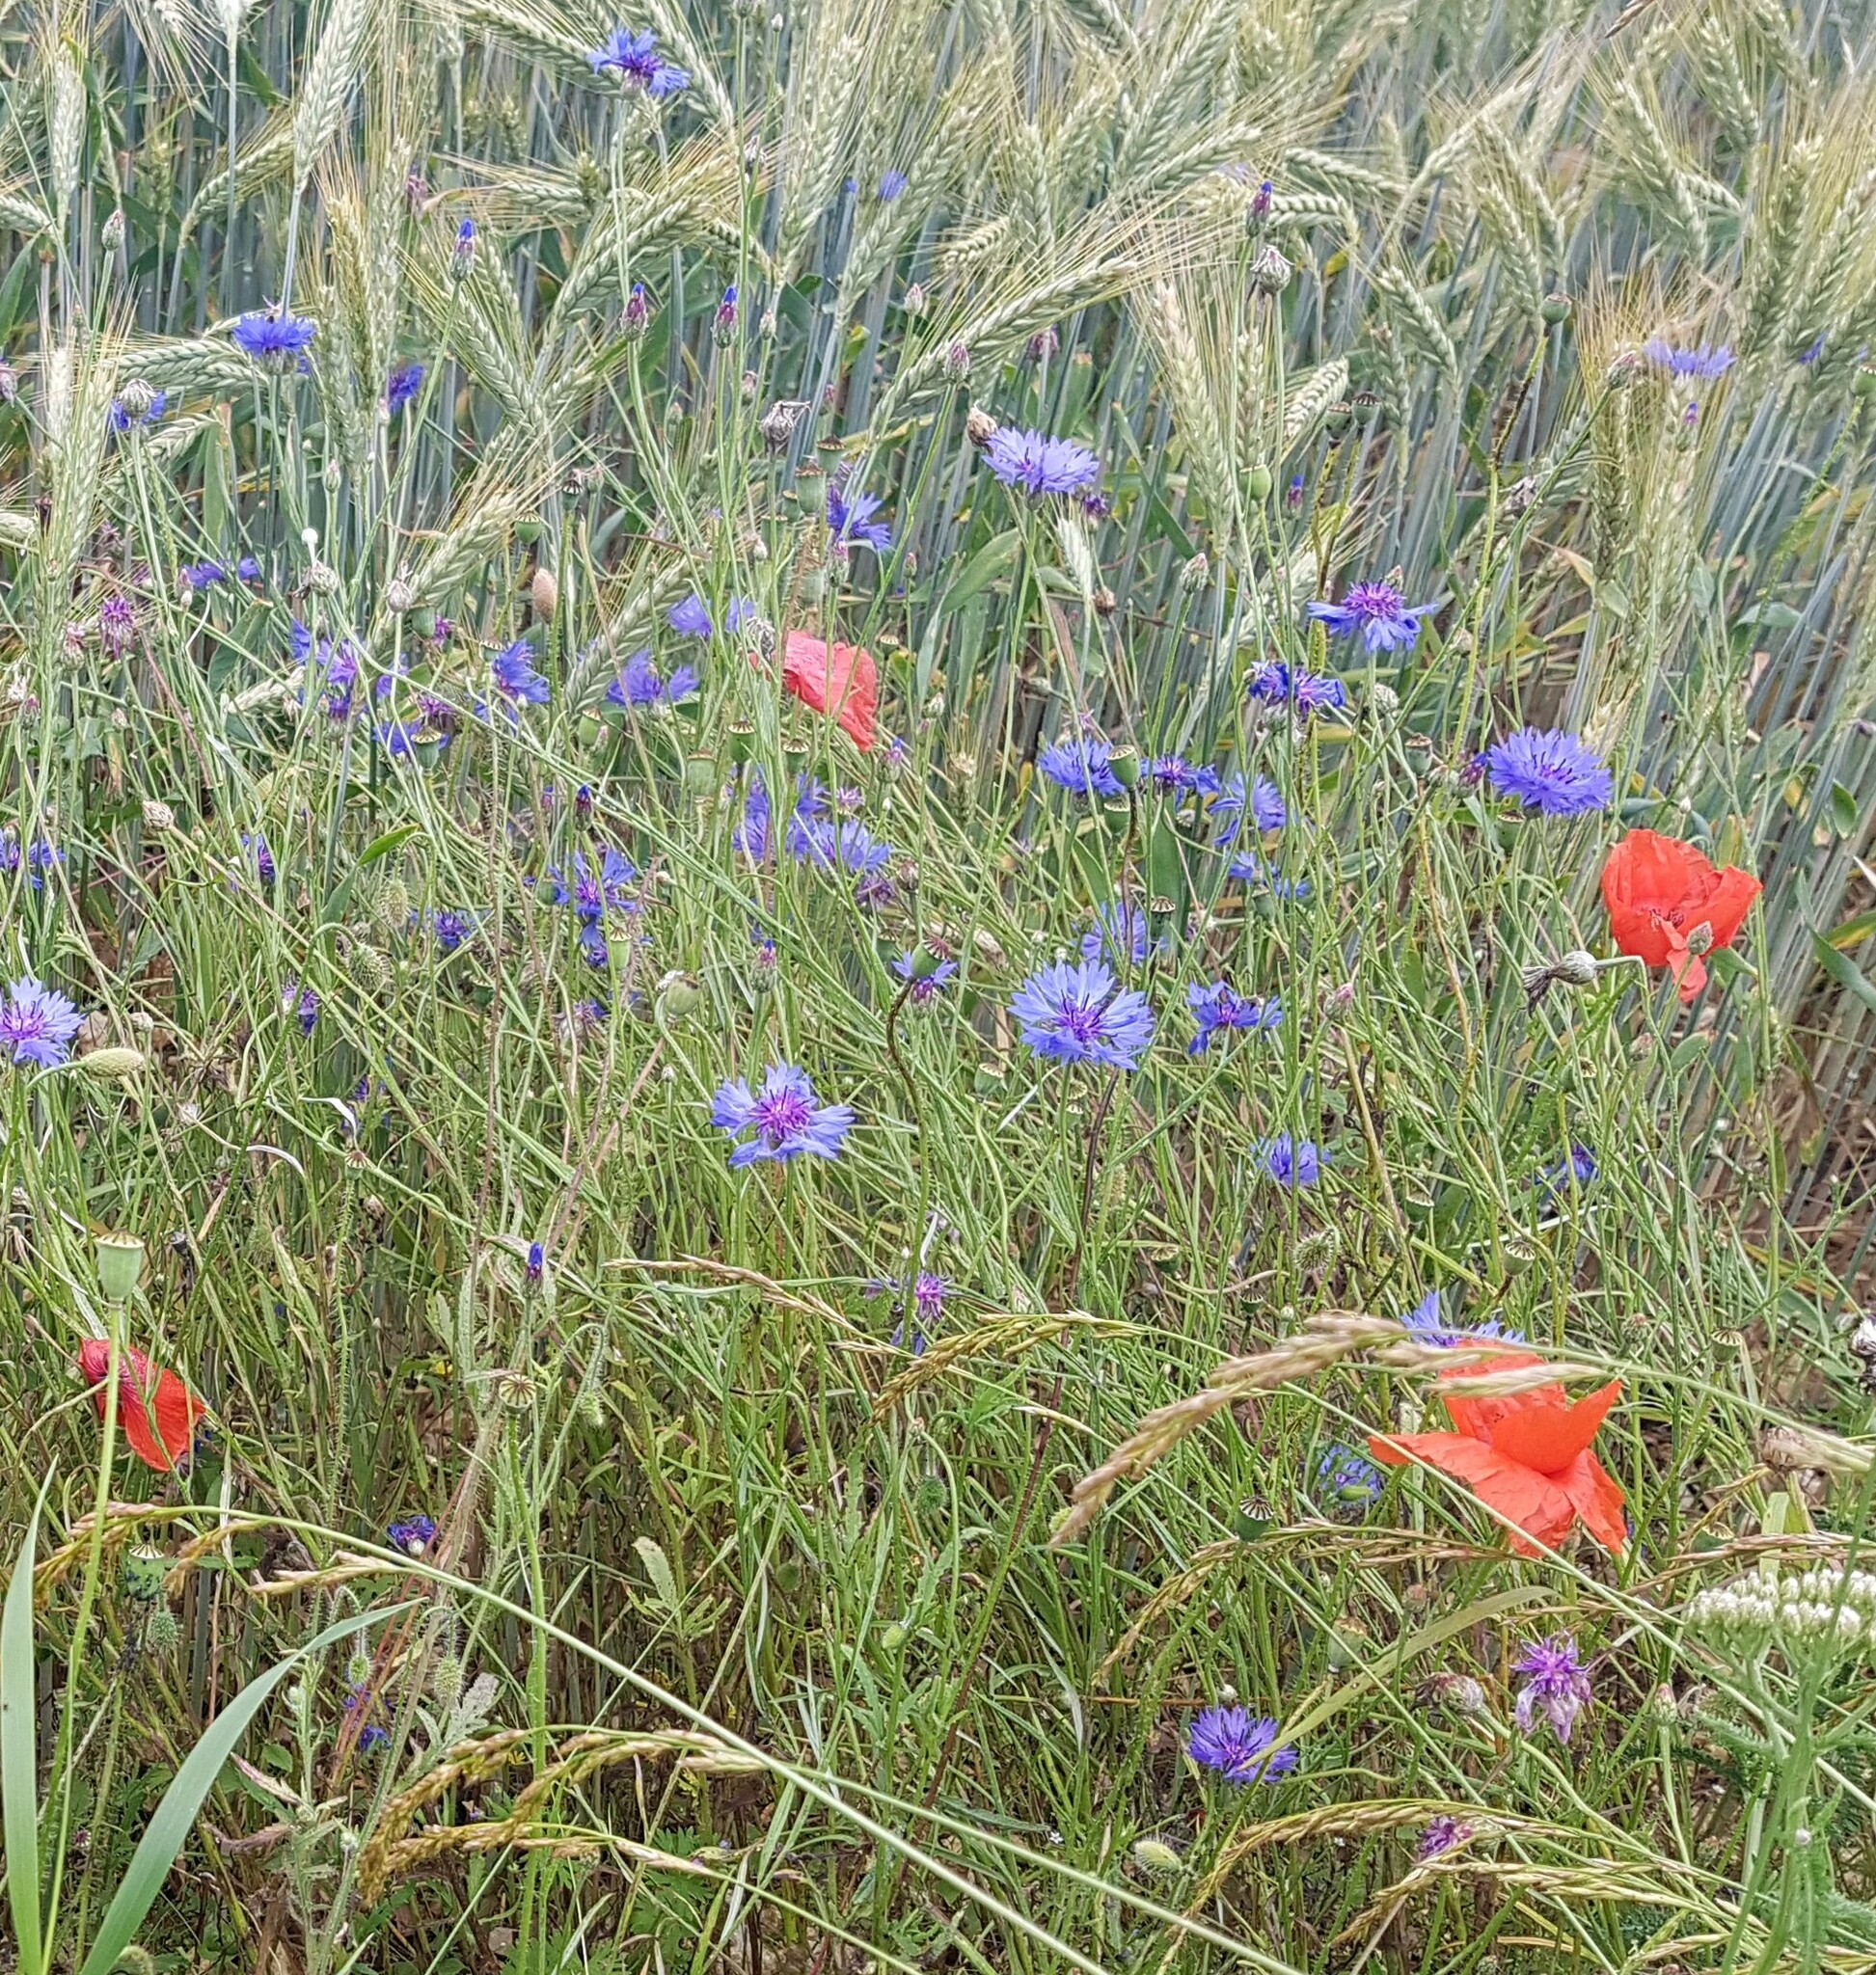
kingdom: Plantae
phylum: Tracheophyta
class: Magnoliopsida
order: Asterales
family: Asteraceae
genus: Centaurea
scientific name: Centaurea cyanus
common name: Cornflower
